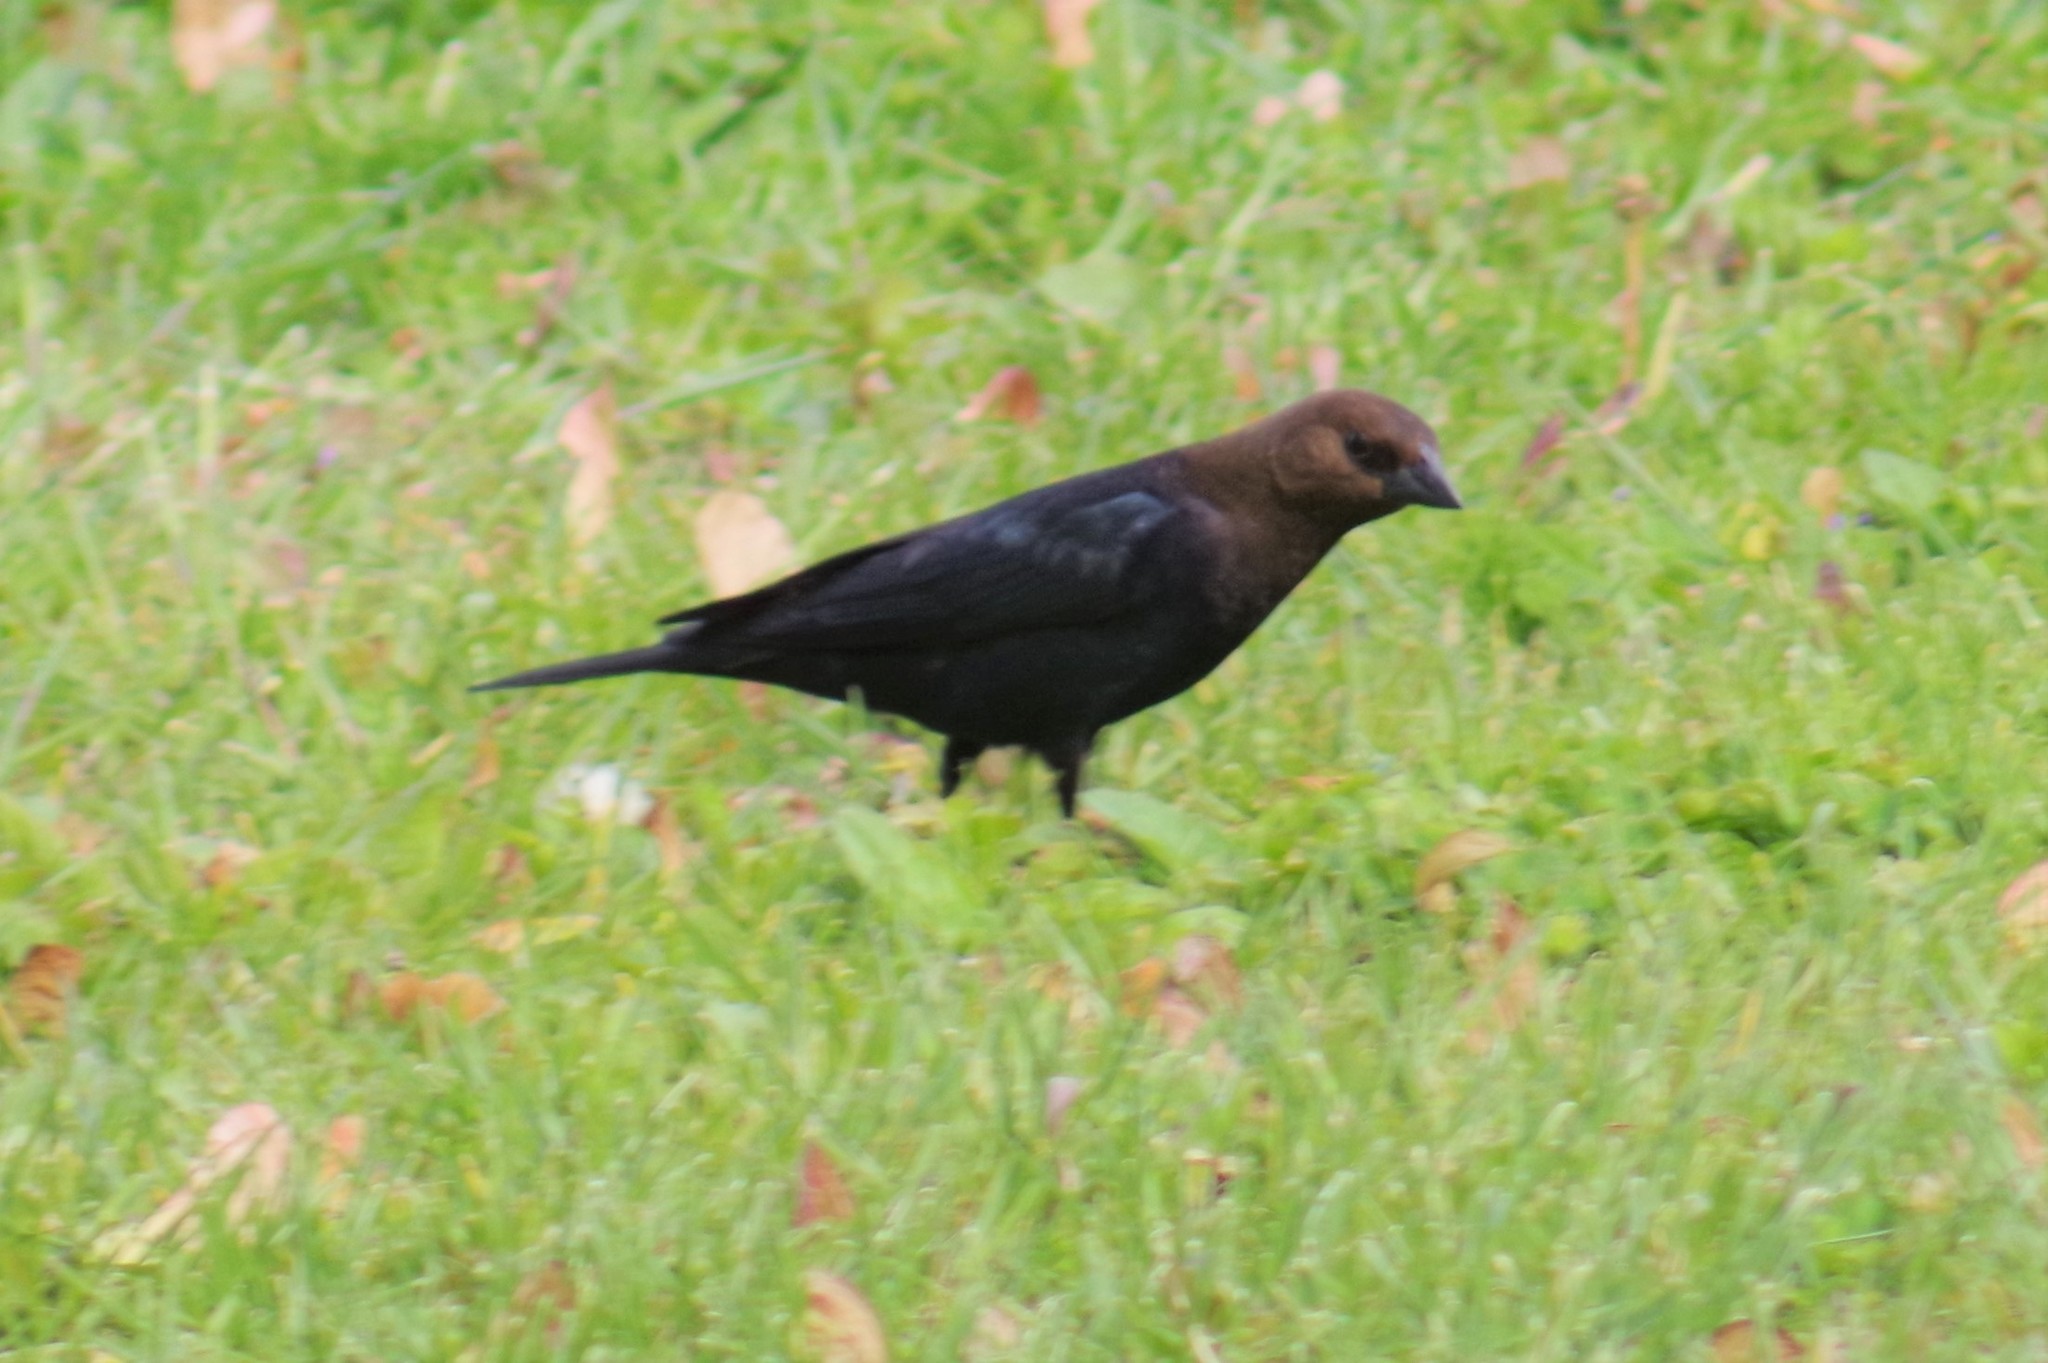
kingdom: Animalia
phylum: Chordata
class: Aves
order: Passeriformes
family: Icteridae
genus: Molothrus
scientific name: Molothrus ater
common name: Brown-headed cowbird
